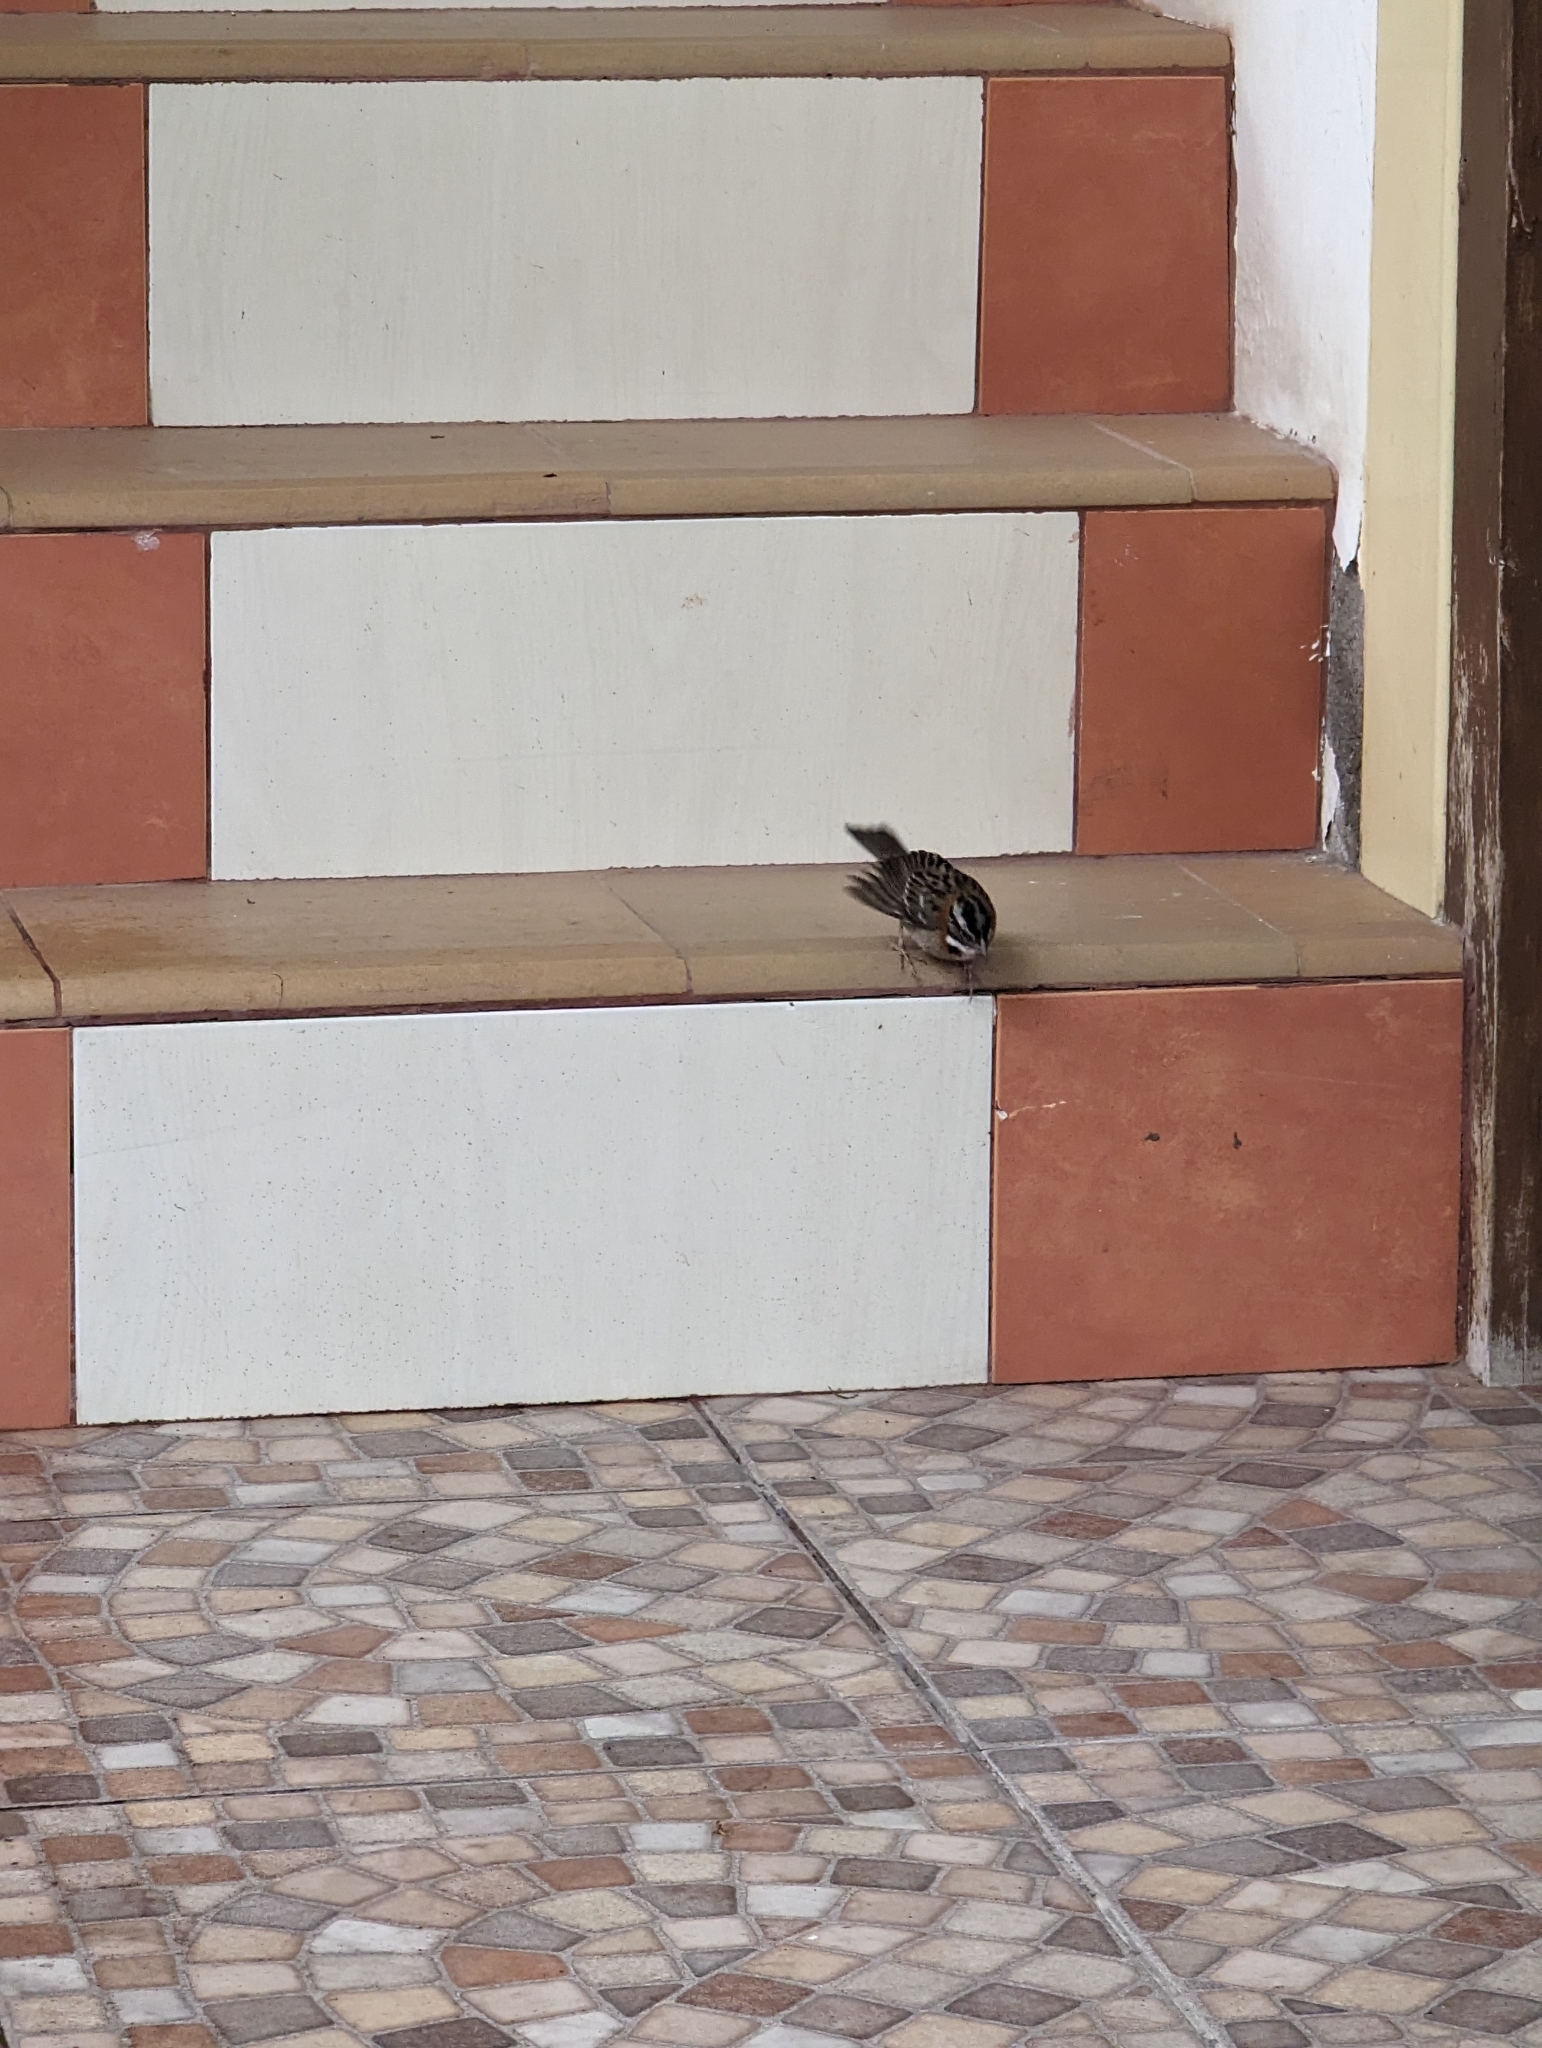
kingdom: Animalia
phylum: Chordata
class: Aves
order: Passeriformes
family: Passerellidae
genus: Zonotrichia
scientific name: Zonotrichia capensis
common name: Rufous-collared sparrow
